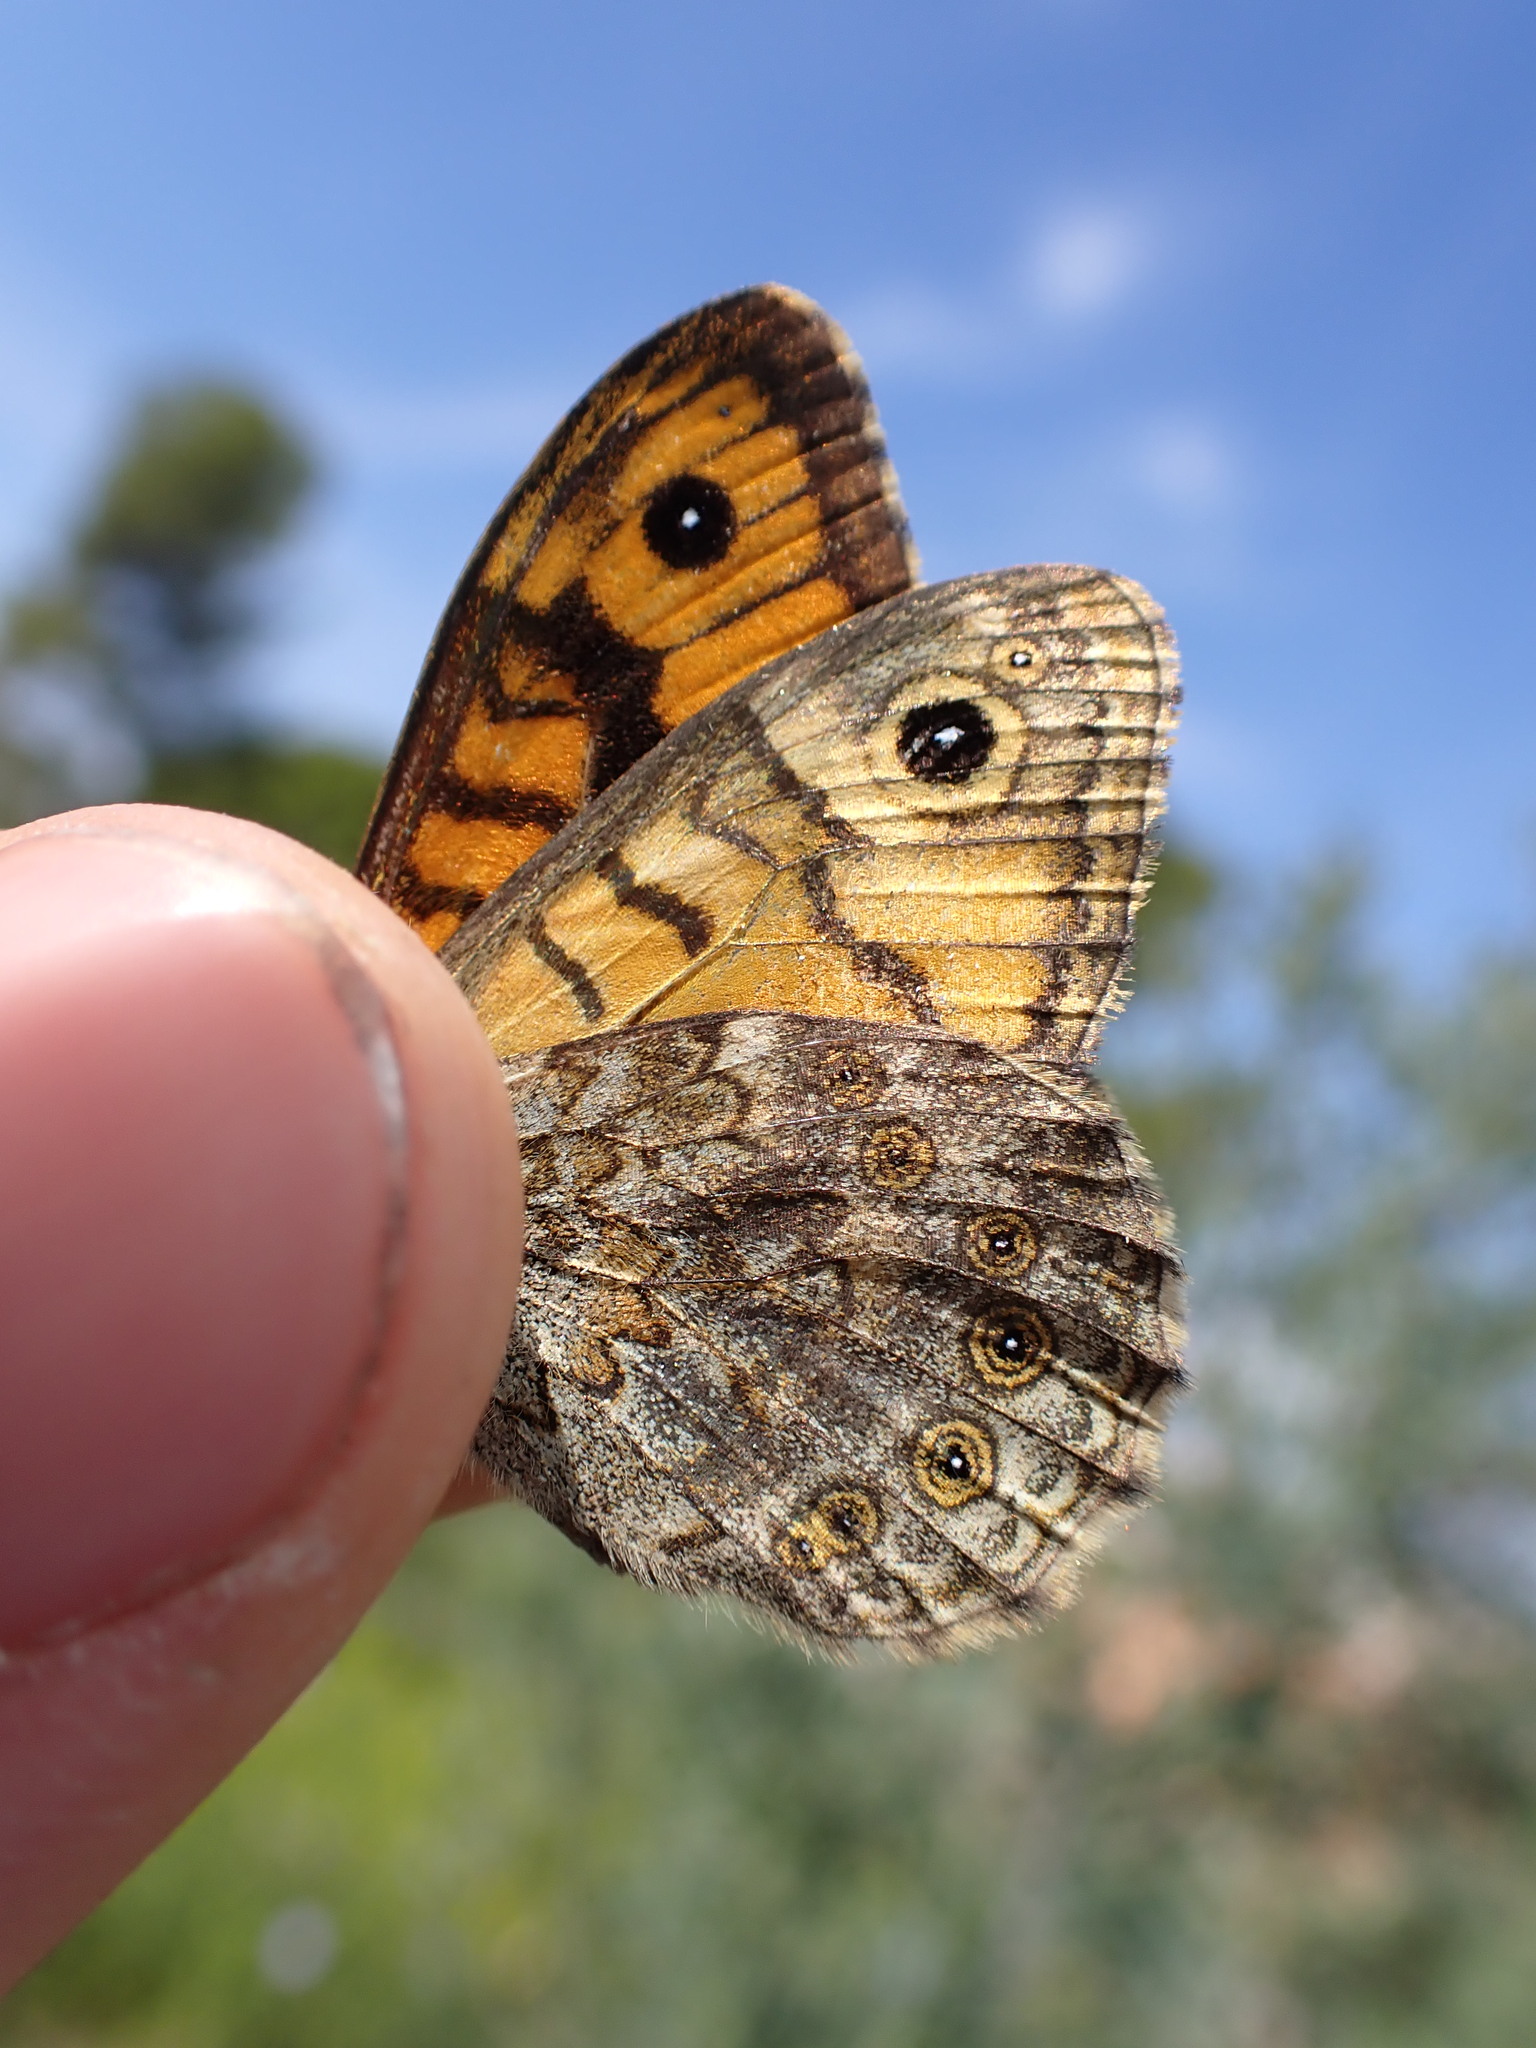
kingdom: Animalia
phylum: Arthropoda
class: Insecta
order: Lepidoptera
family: Nymphalidae
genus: Pararge
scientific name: Pararge Lasiommata megera
